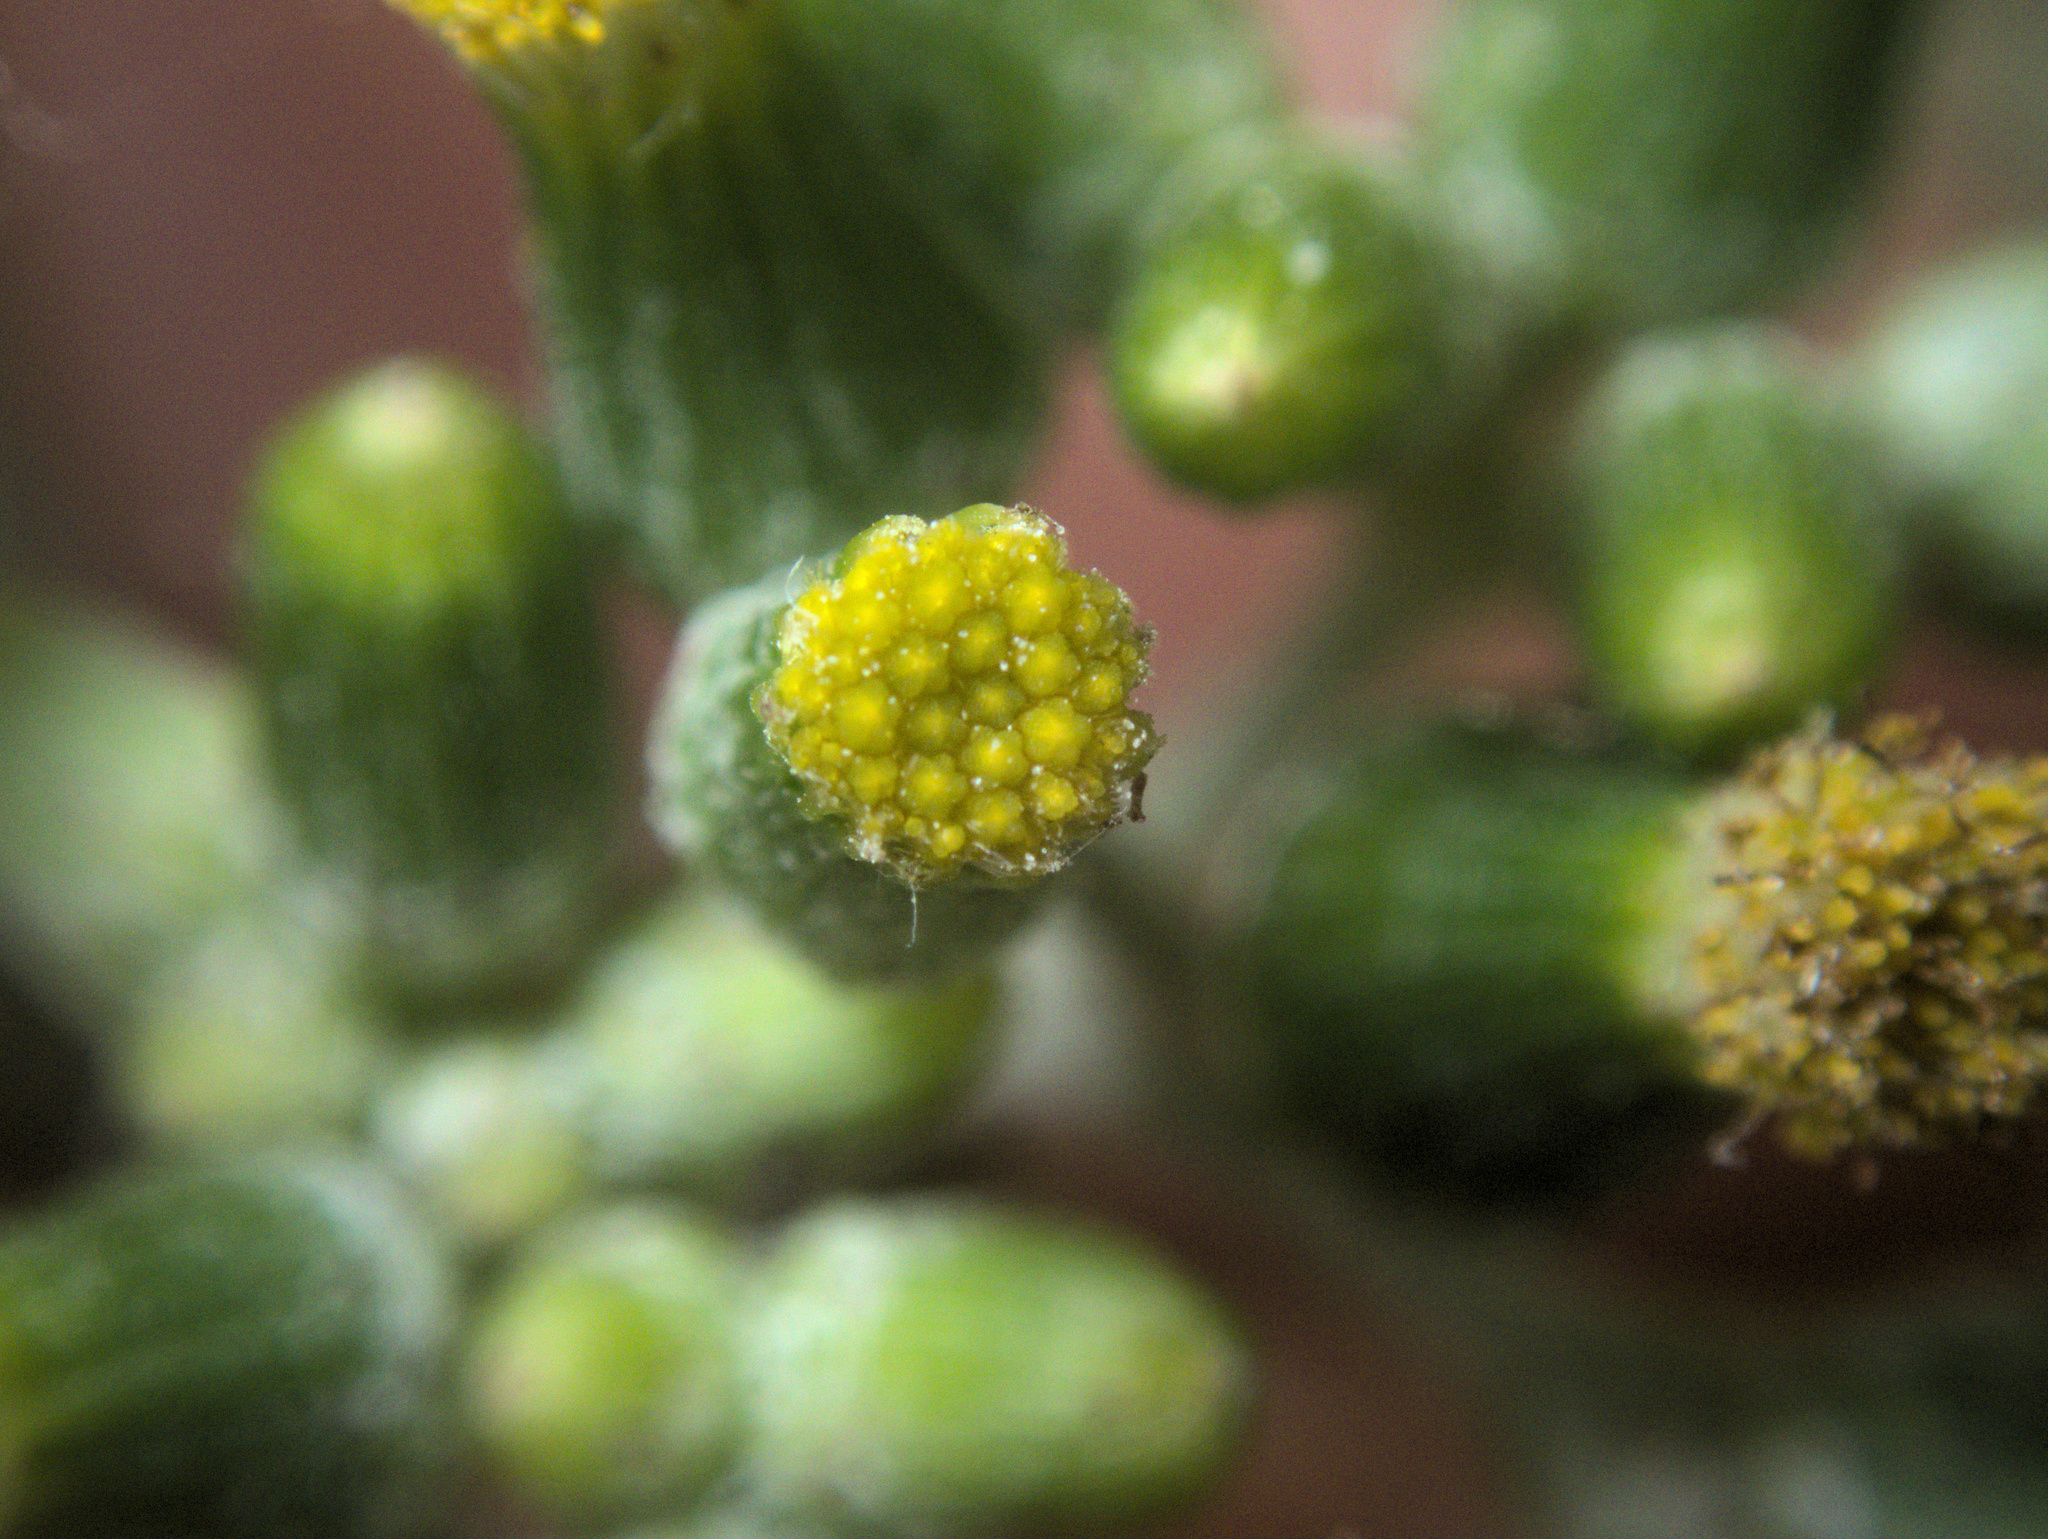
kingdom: Plantae
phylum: Tracheophyta
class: Magnoliopsida
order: Asterales
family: Asteraceae
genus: Senecio
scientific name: Senecio glomeratus
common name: Cutleaf burnweed
